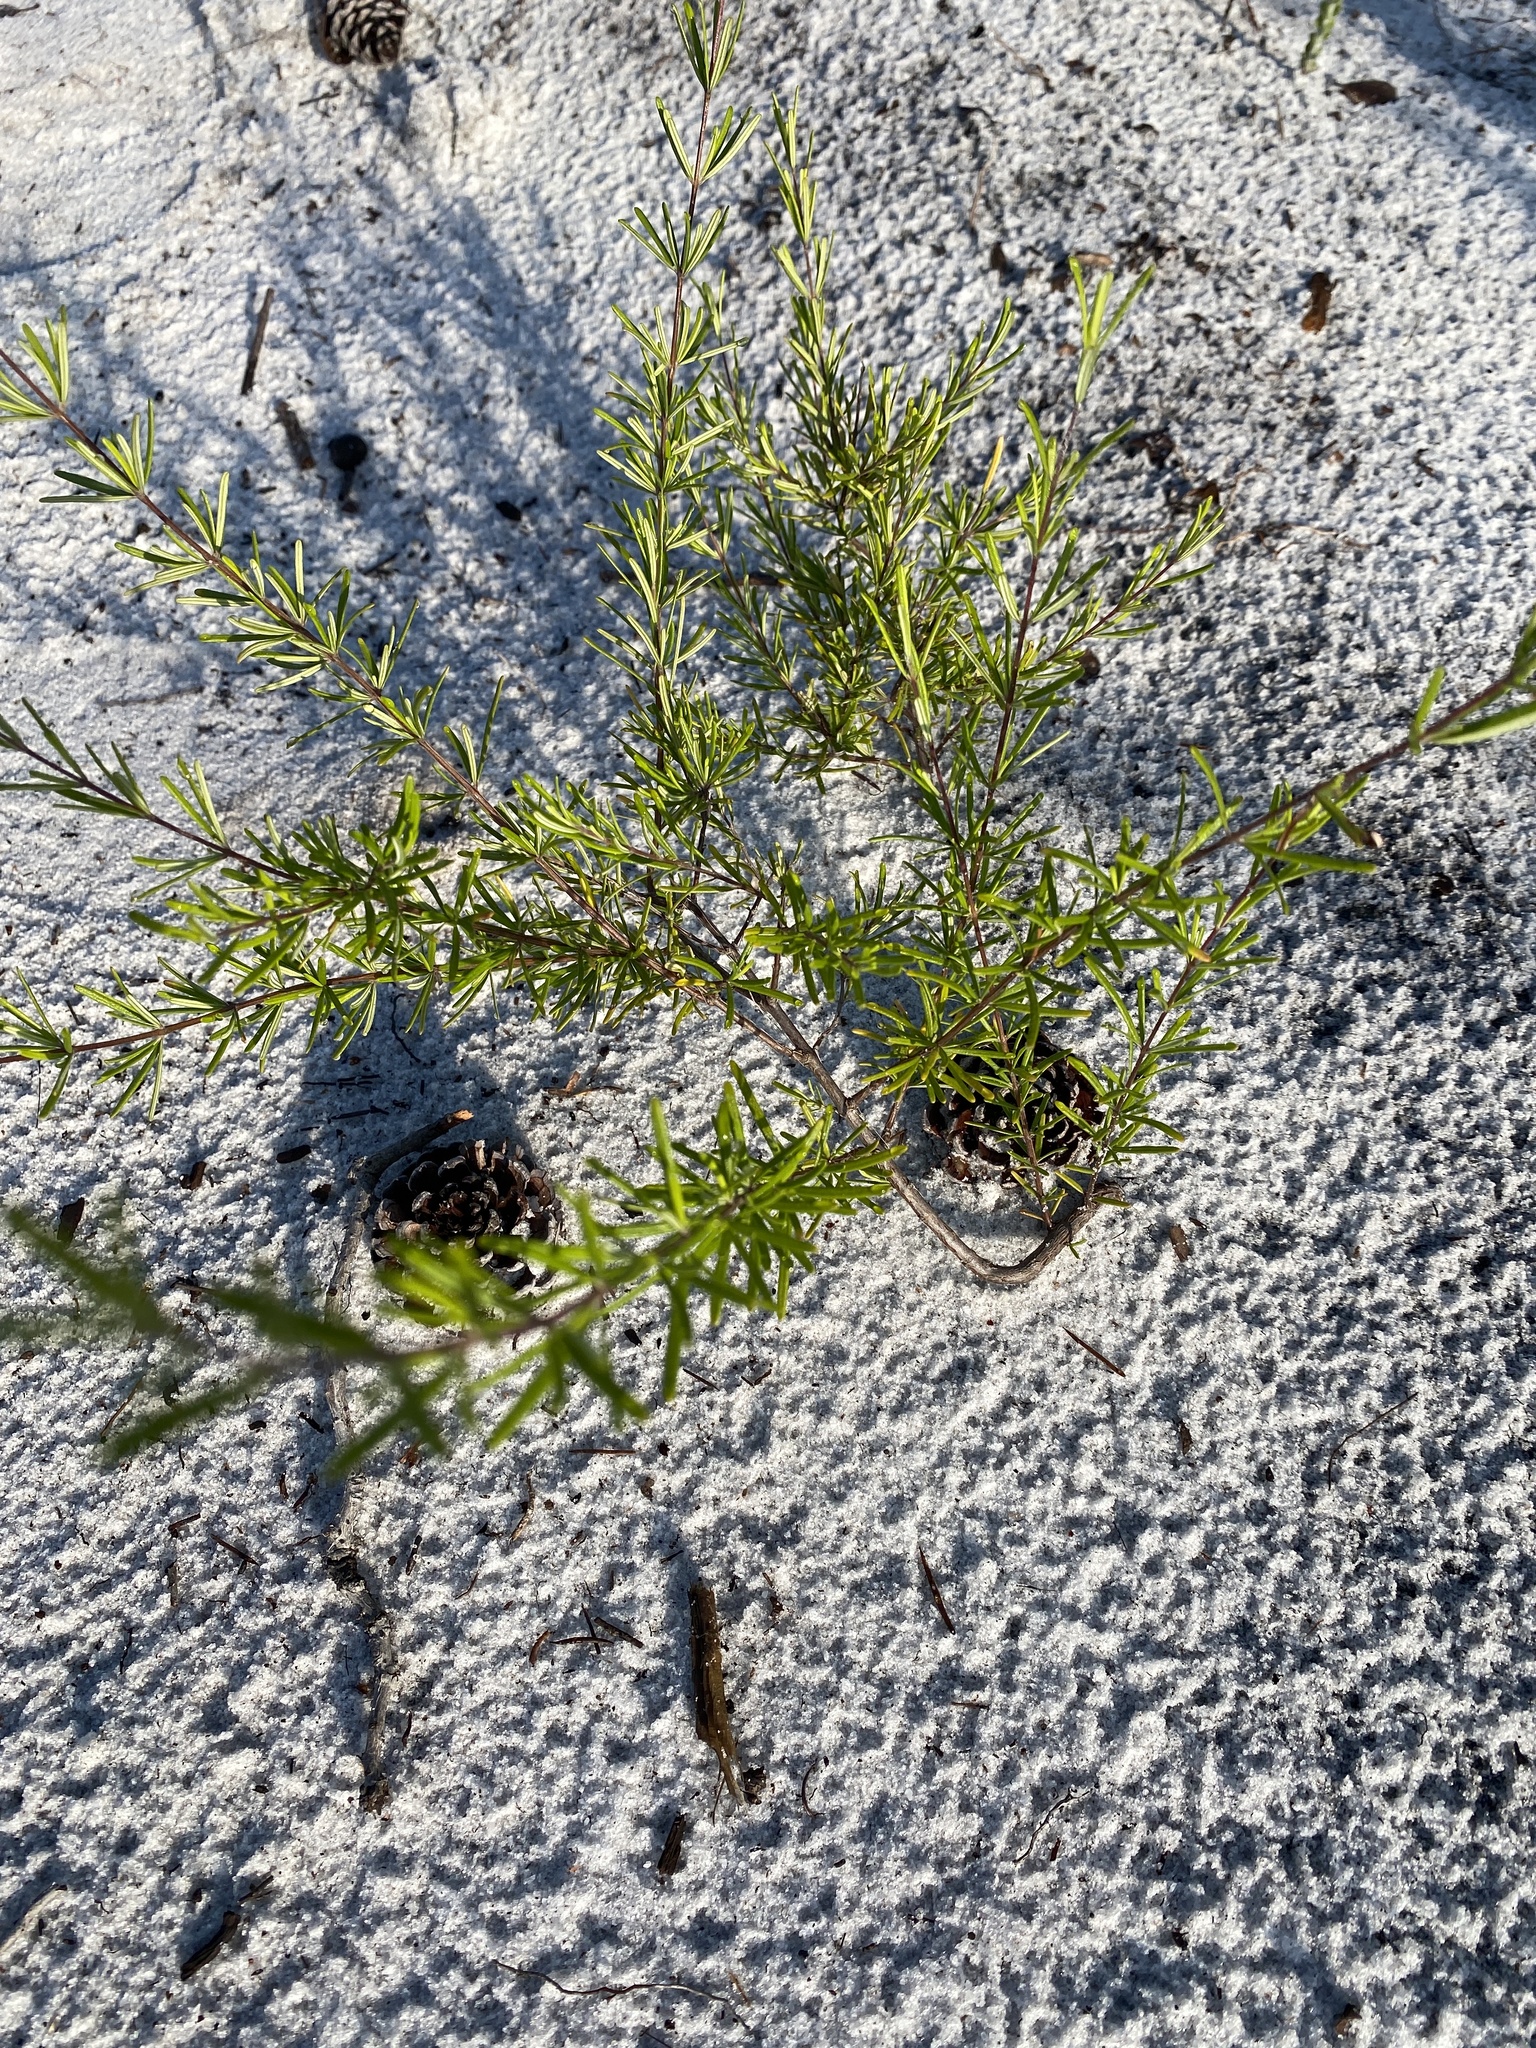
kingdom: Plantae
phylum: Tracheophyta
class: Magnoliopsida
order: Lamiales
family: Lamiaceae
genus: Conradina
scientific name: Conradina grandiflora
